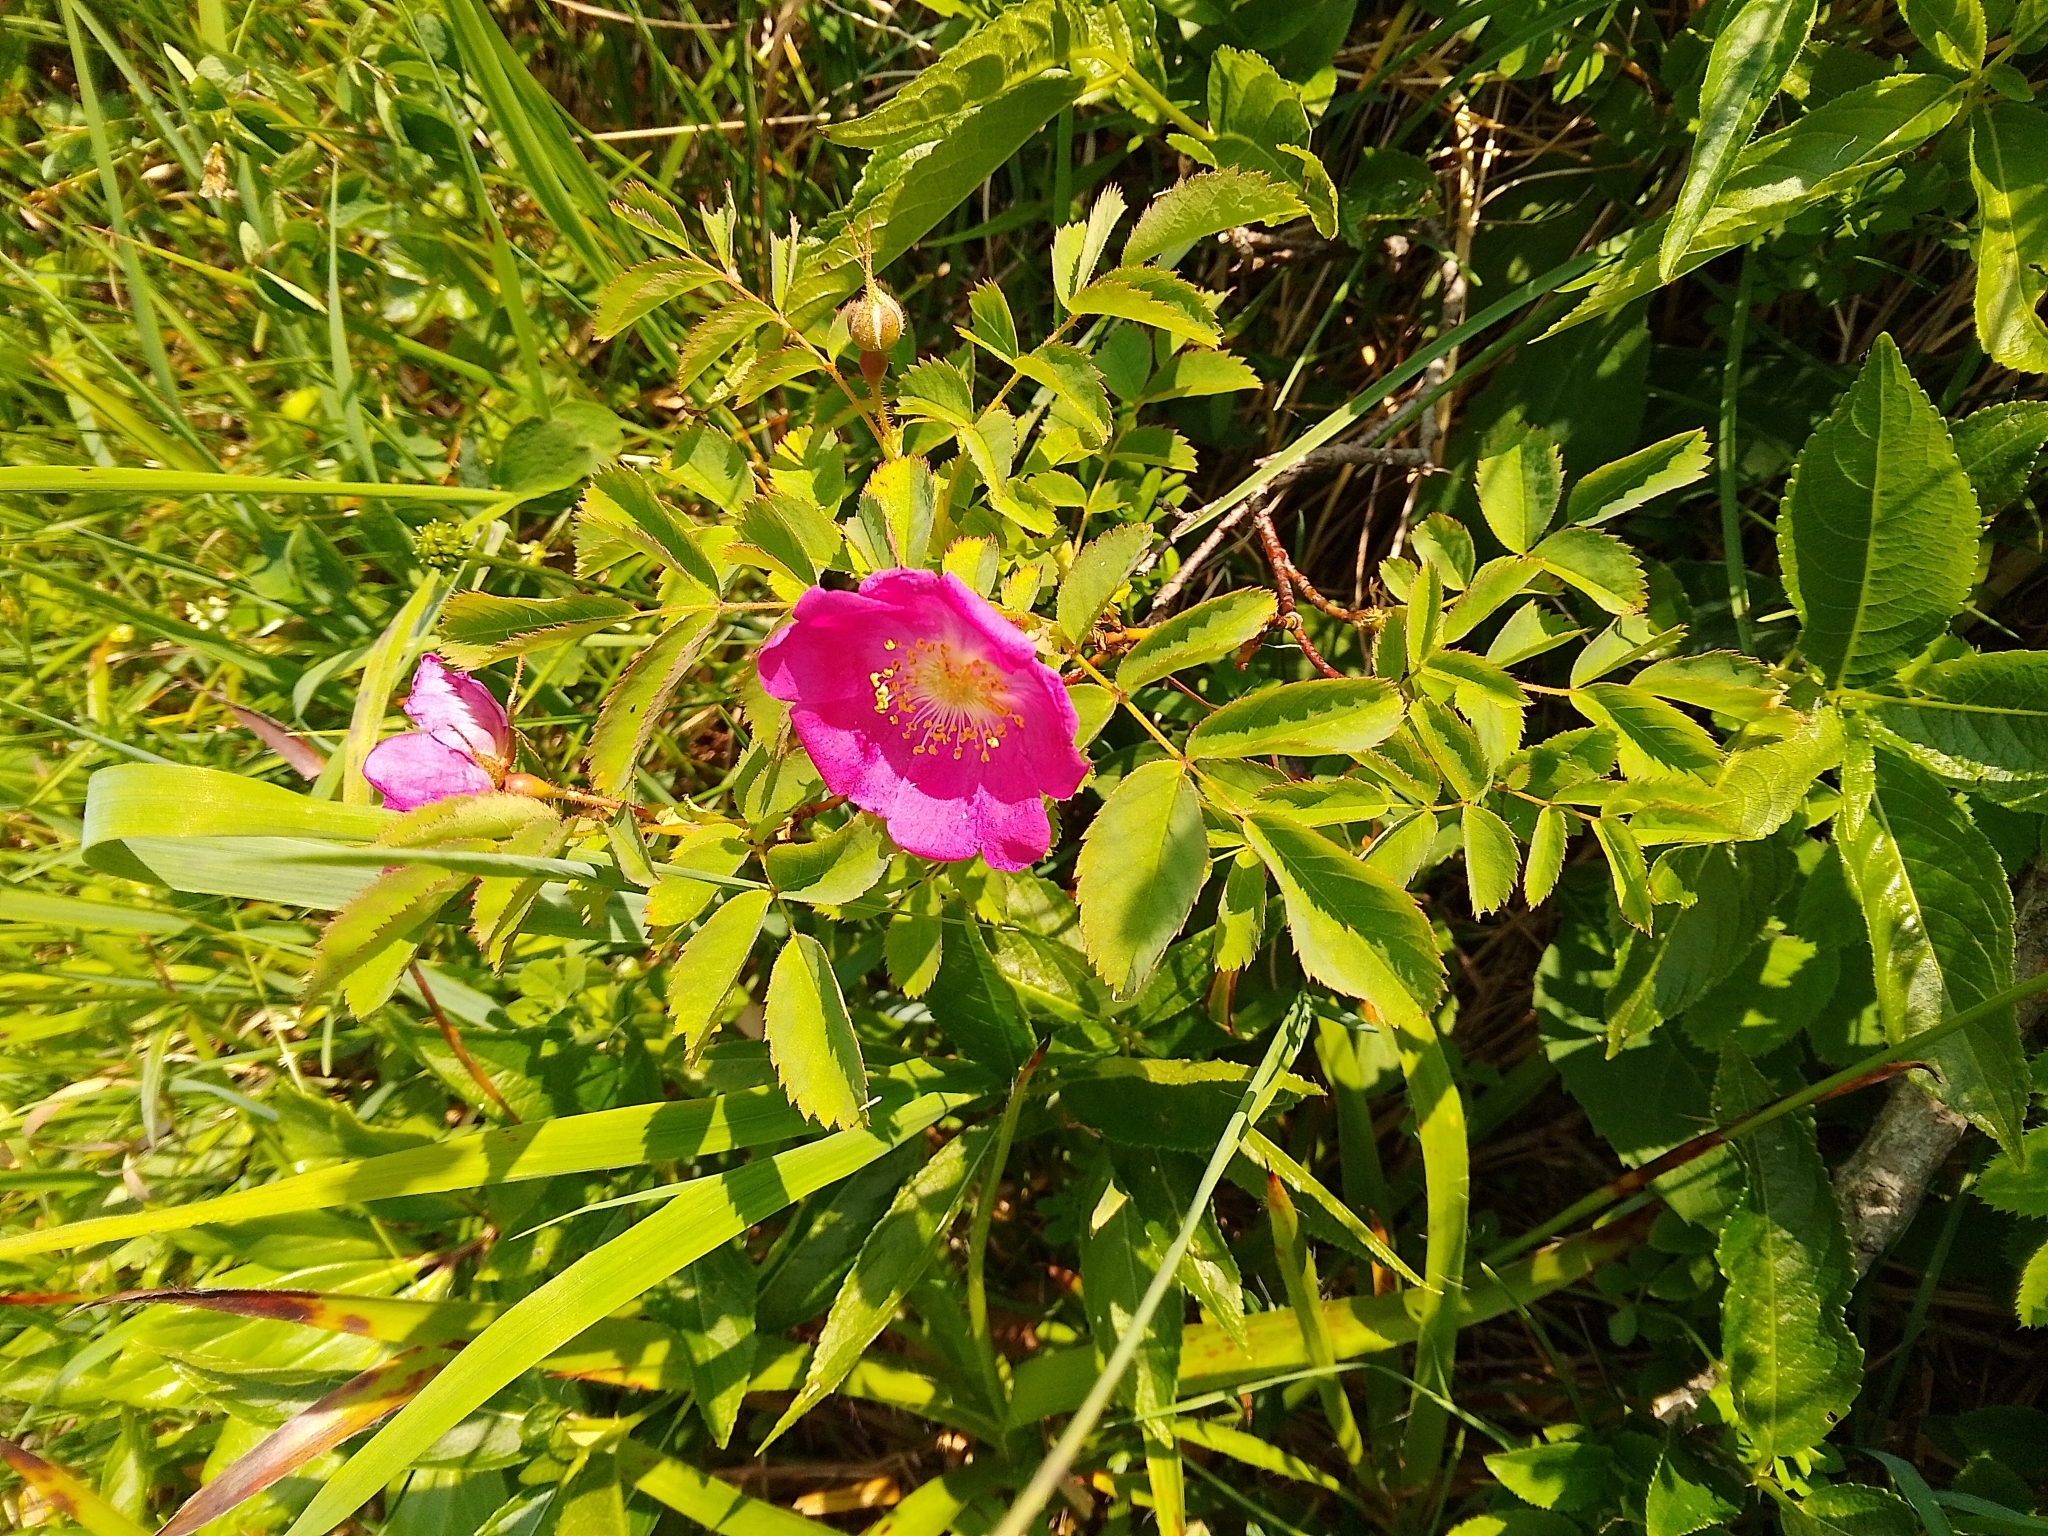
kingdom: Plantae
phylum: Tracheophyta
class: Magnoliopsida
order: Rosales
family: Rosaceae
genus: Rosa
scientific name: Rosa pendulina
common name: Alpine rose
